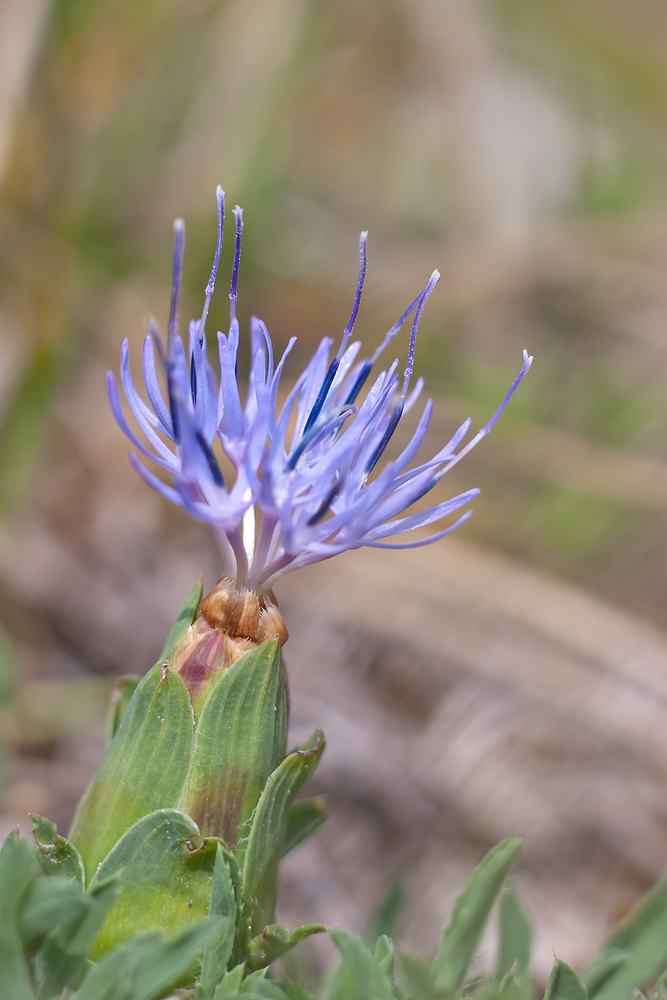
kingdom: Plantae
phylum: Tracheophyta
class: Magnoliopsida
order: Asterales
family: Asteraceae
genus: Carduncellus
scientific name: Carduncellus mitissimus
